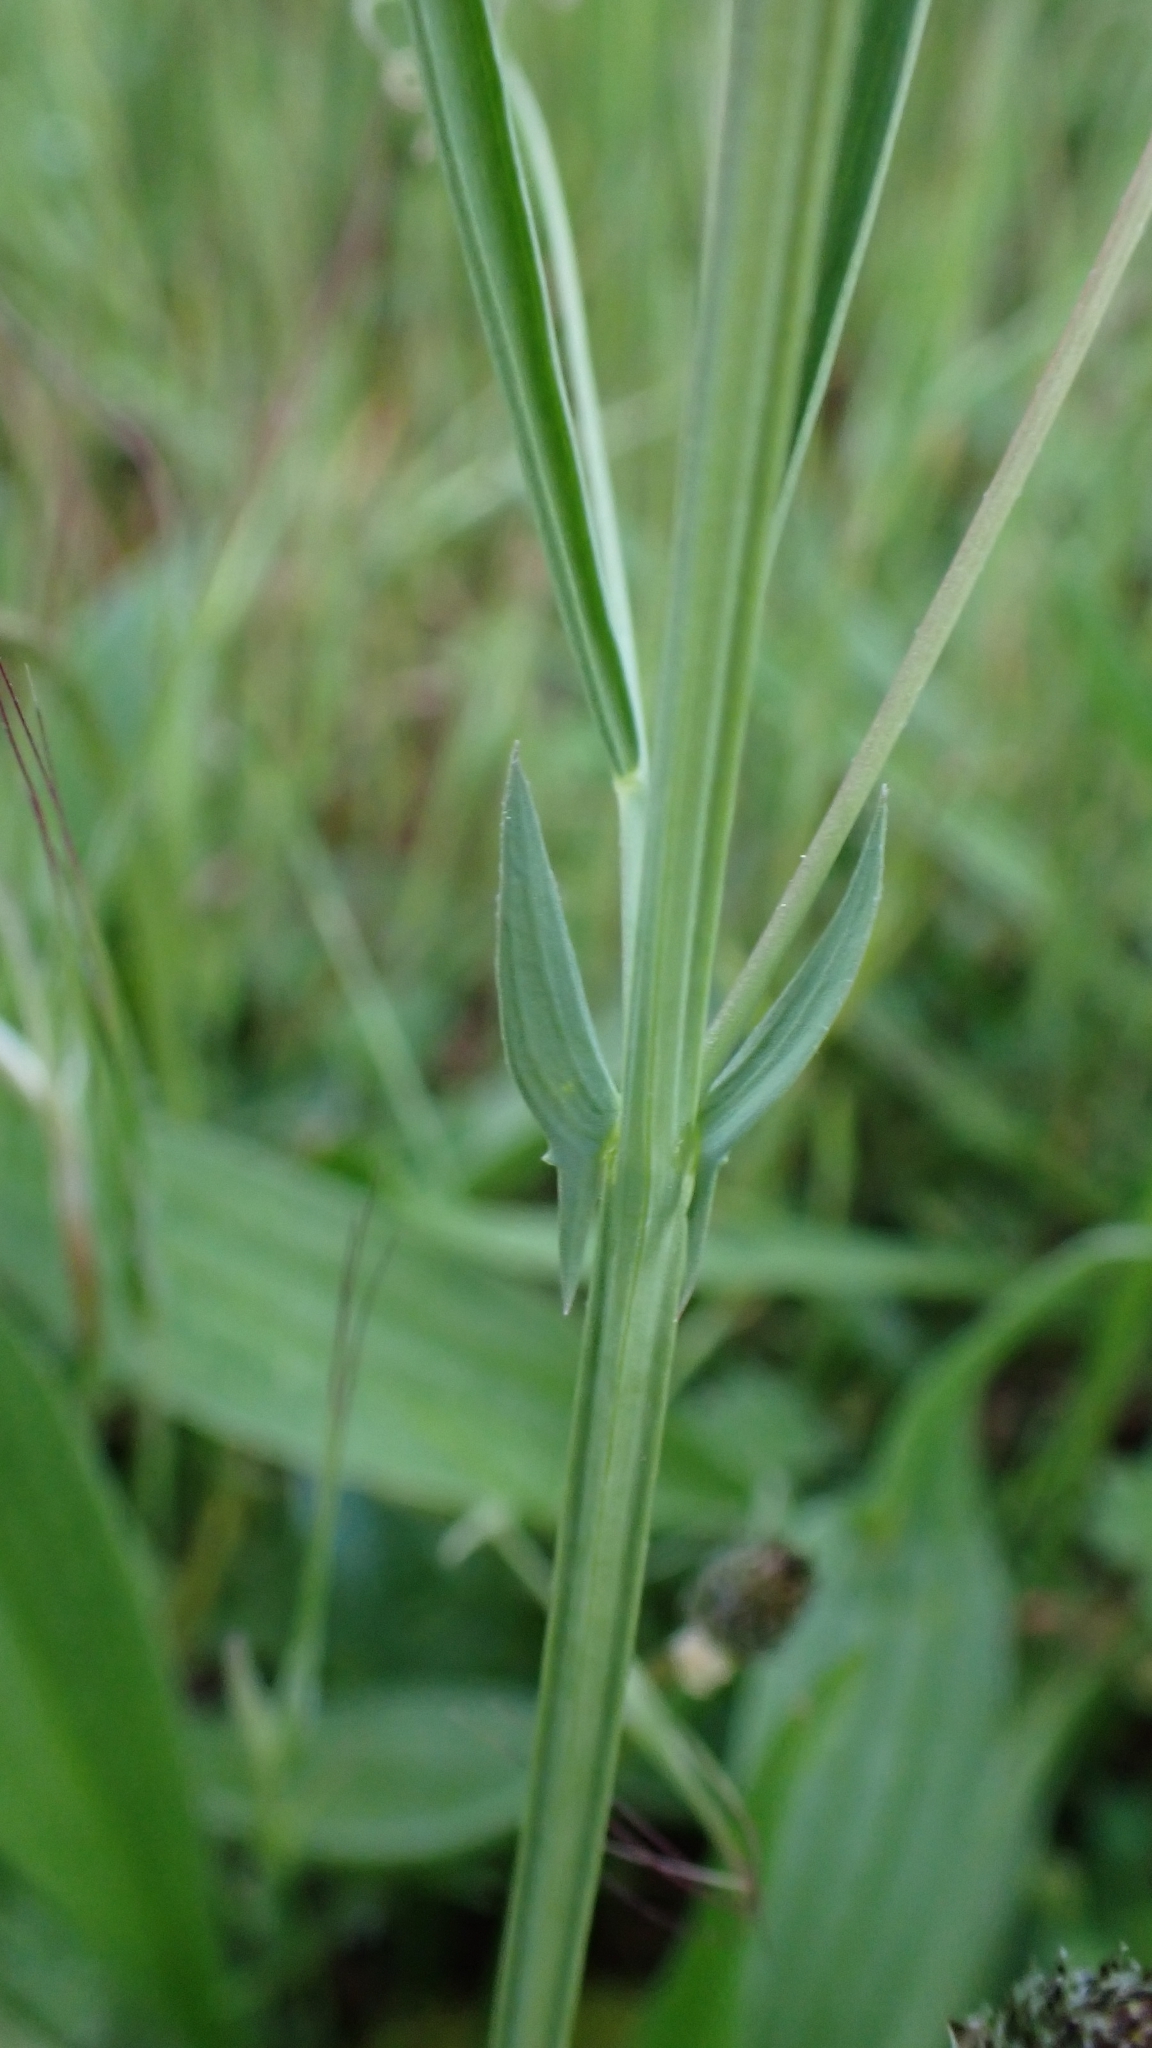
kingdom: Plantae
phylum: Tracheophyta
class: Magnoliopsida
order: Fabales
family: Fabaceae
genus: Lathyrus
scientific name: Lathyrus angulatus
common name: Angular pea
